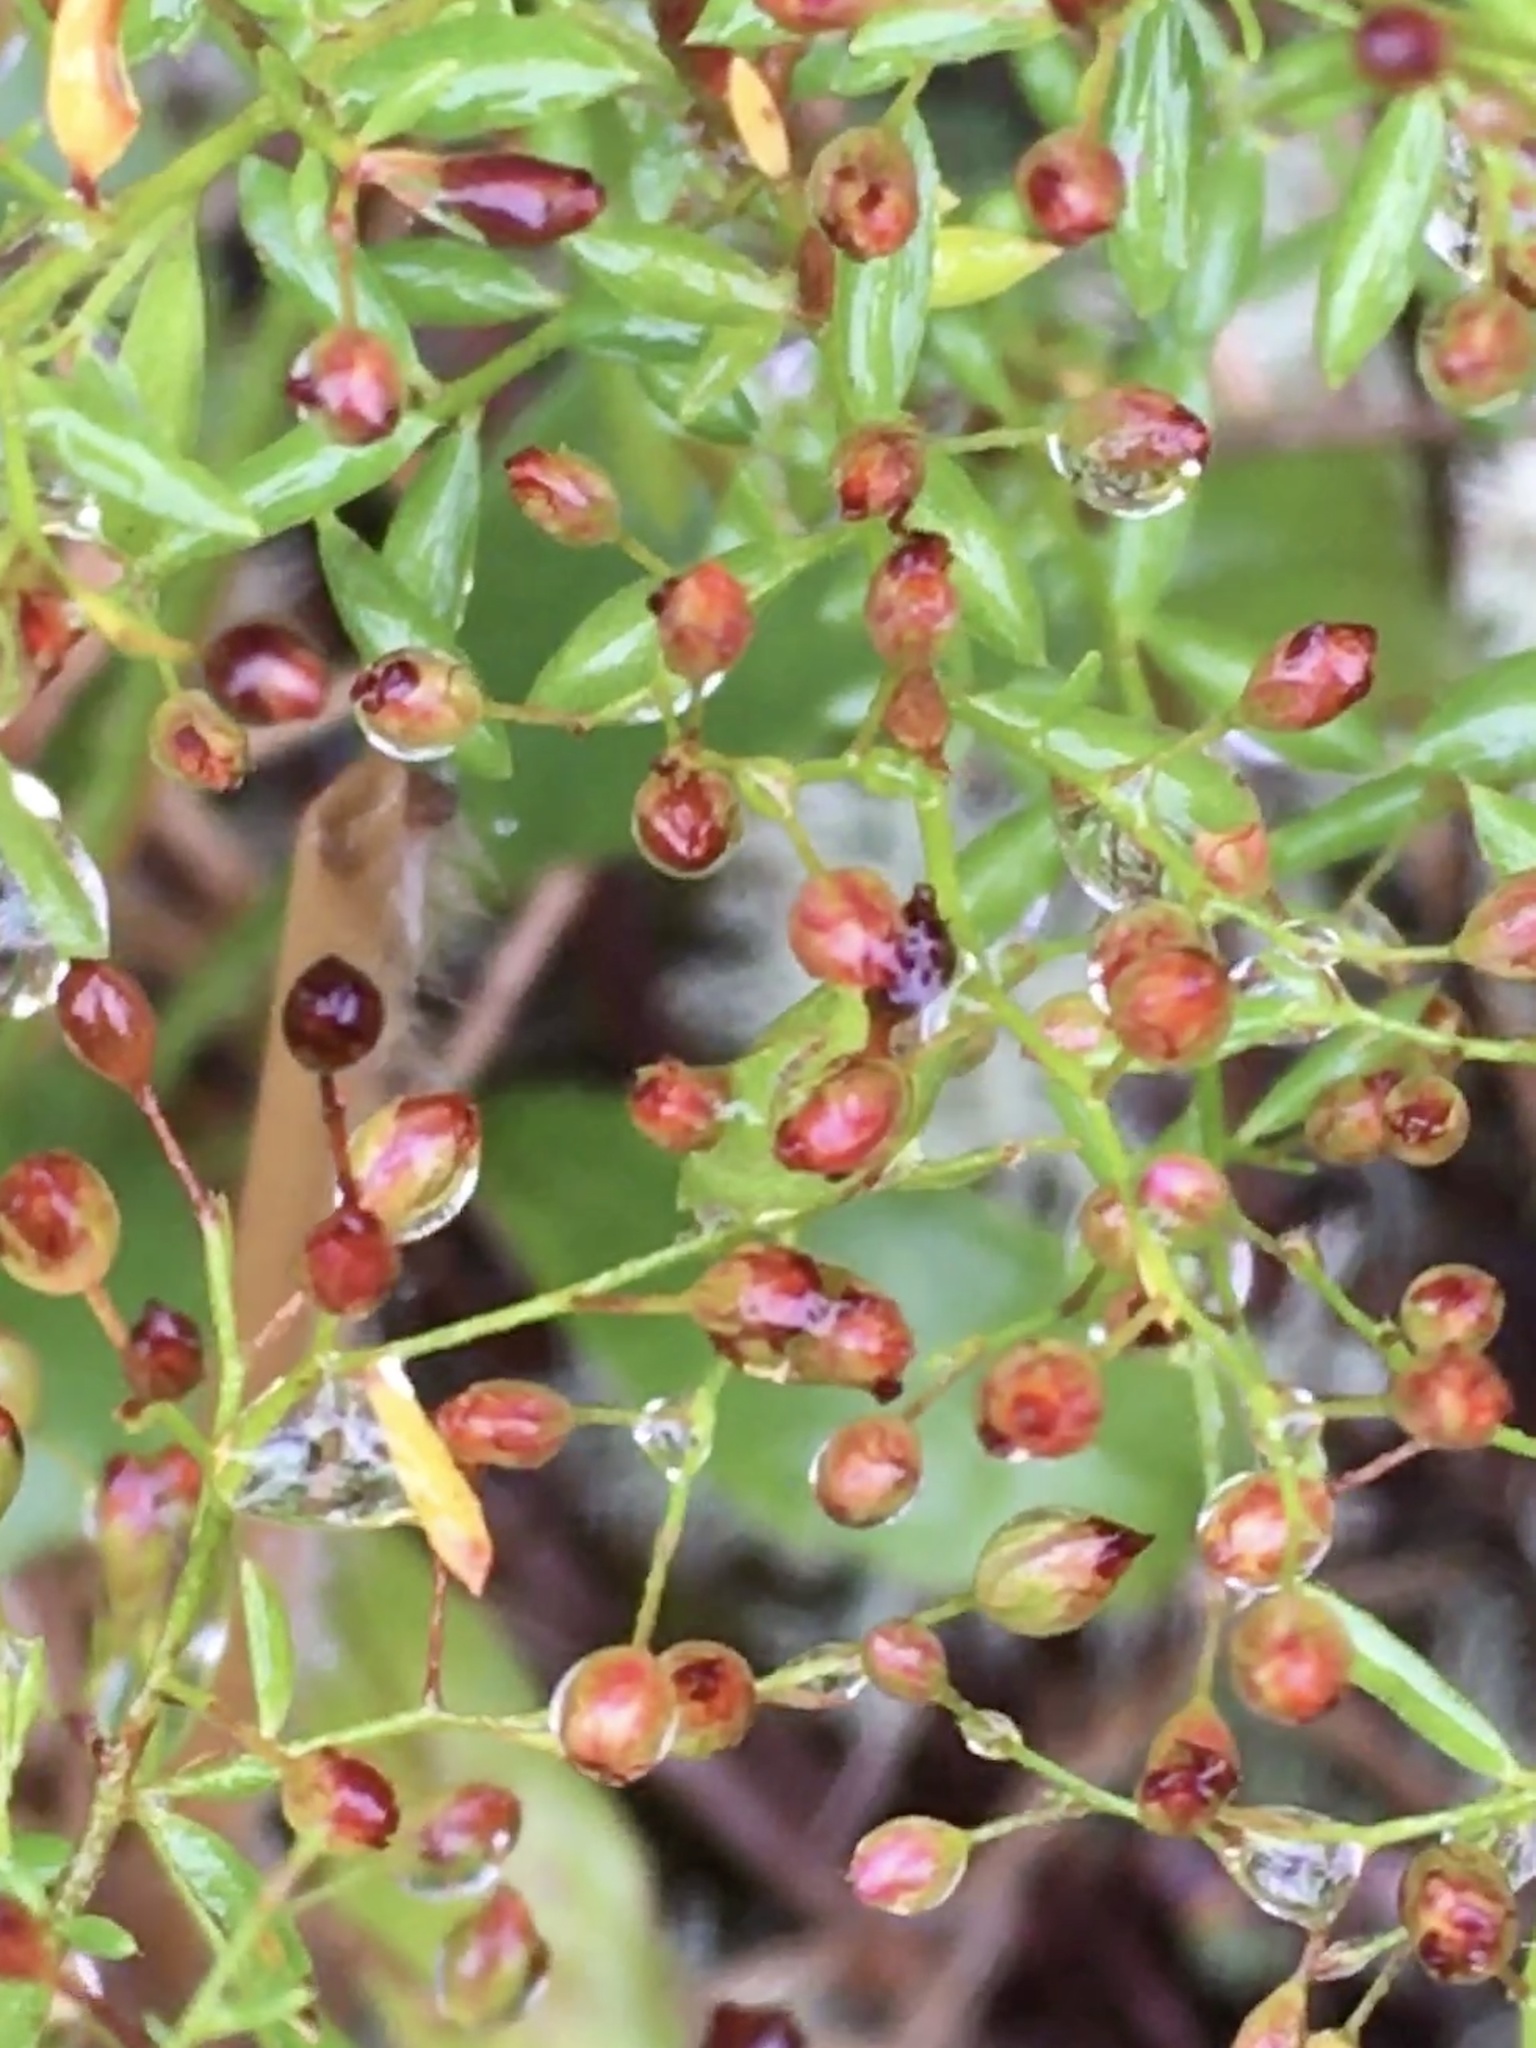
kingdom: Plantae
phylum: Tracheophyta
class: Magnoliopsida
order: Malvales
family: Cistaceae
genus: Lechea
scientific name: Lechea racemulosa
